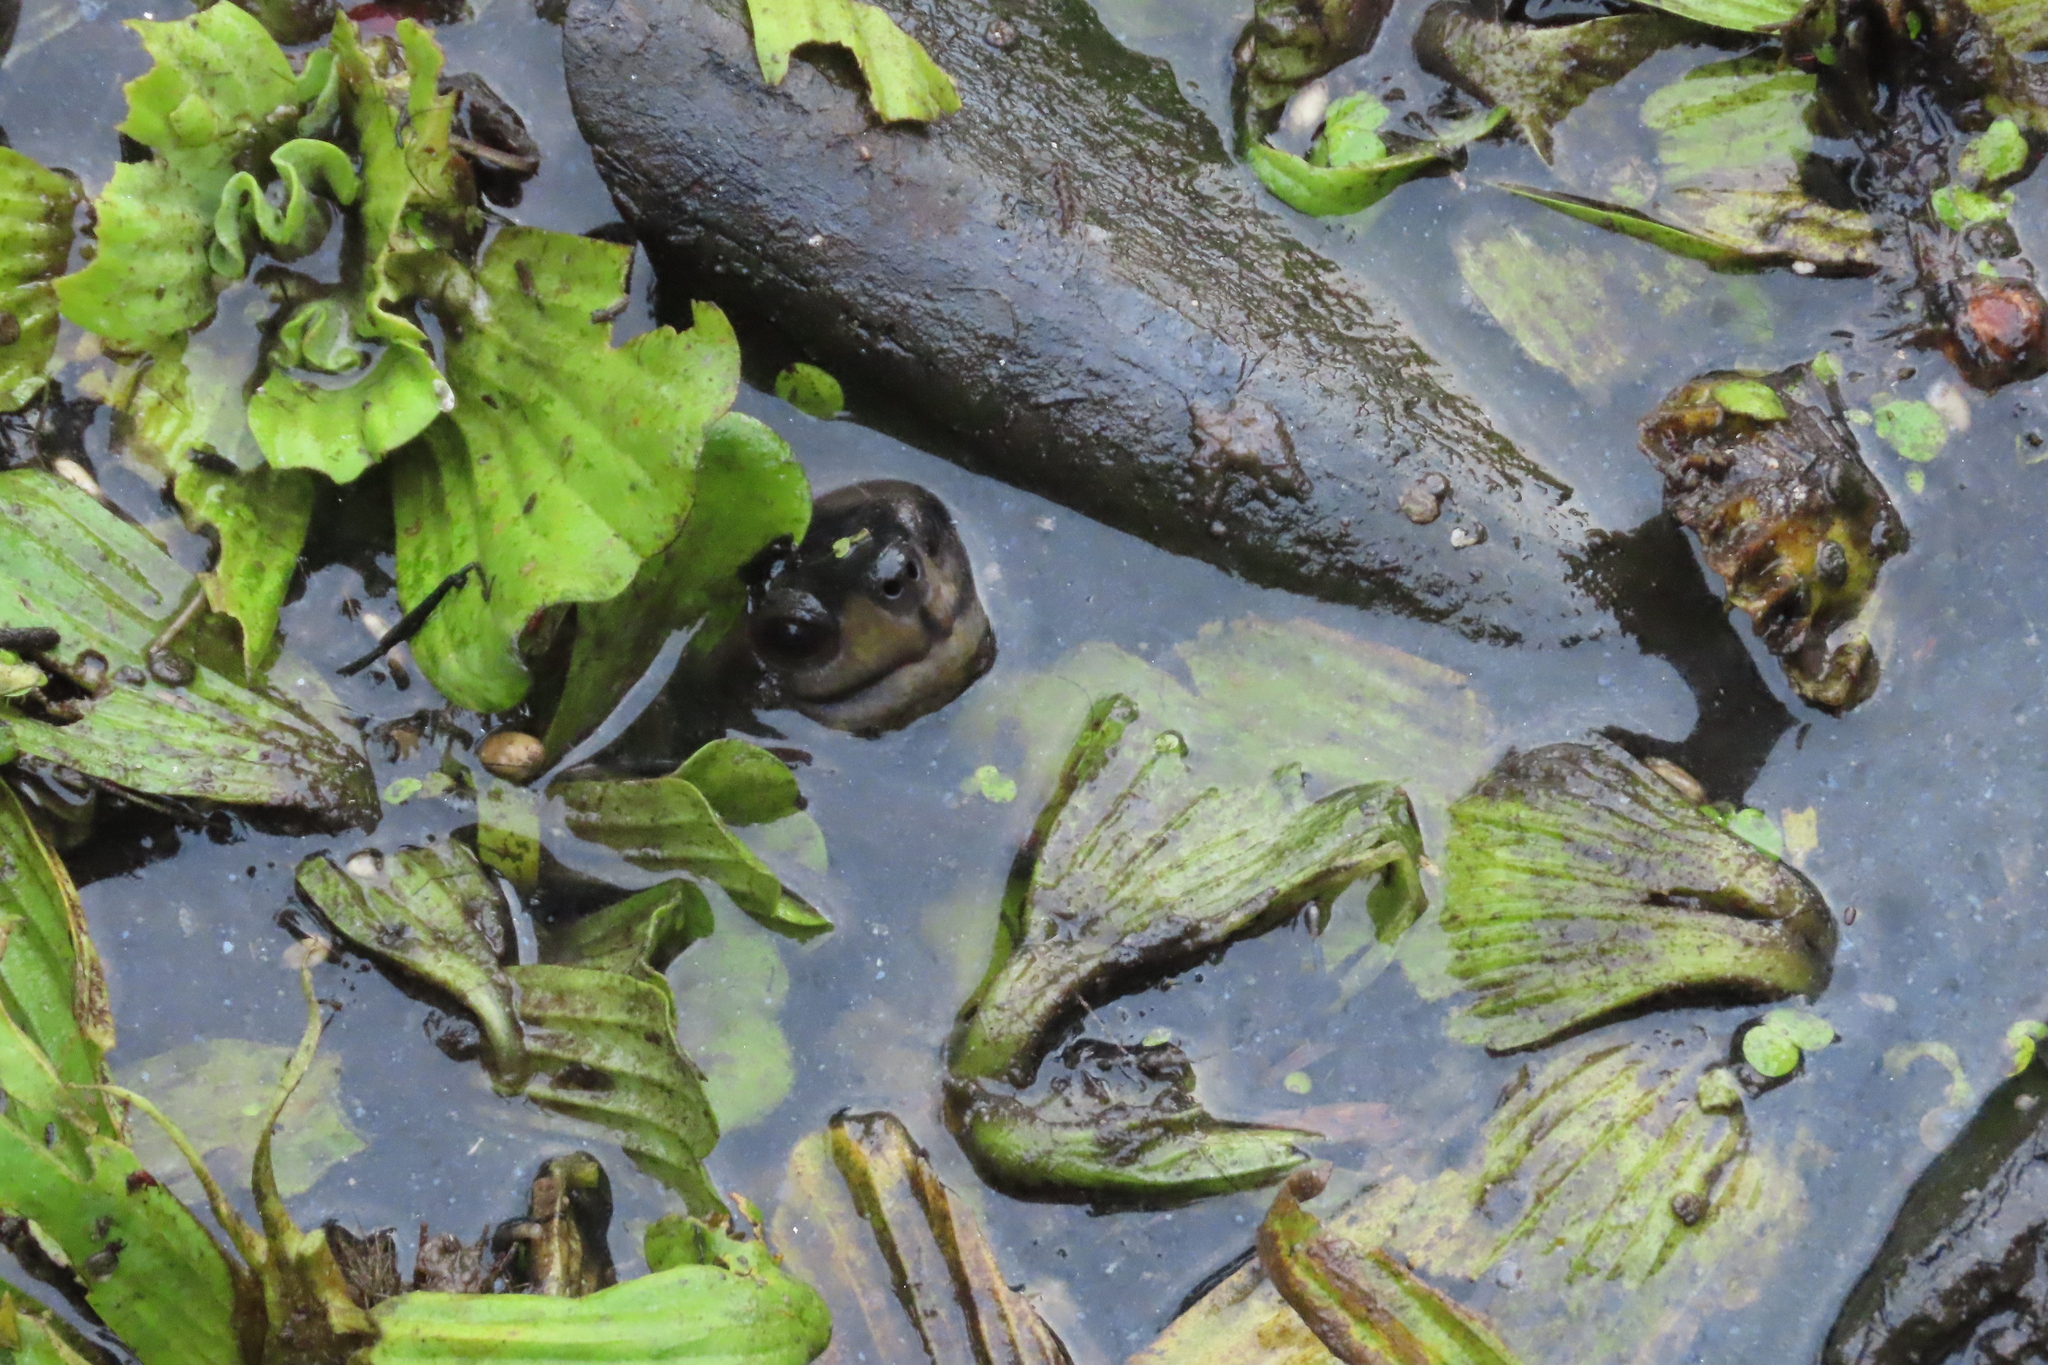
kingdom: Animalia
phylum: Chordata
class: Testudines
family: Geoemydidae
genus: Melanochelys
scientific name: Melanochelys trijuga
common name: Indian black turtle
